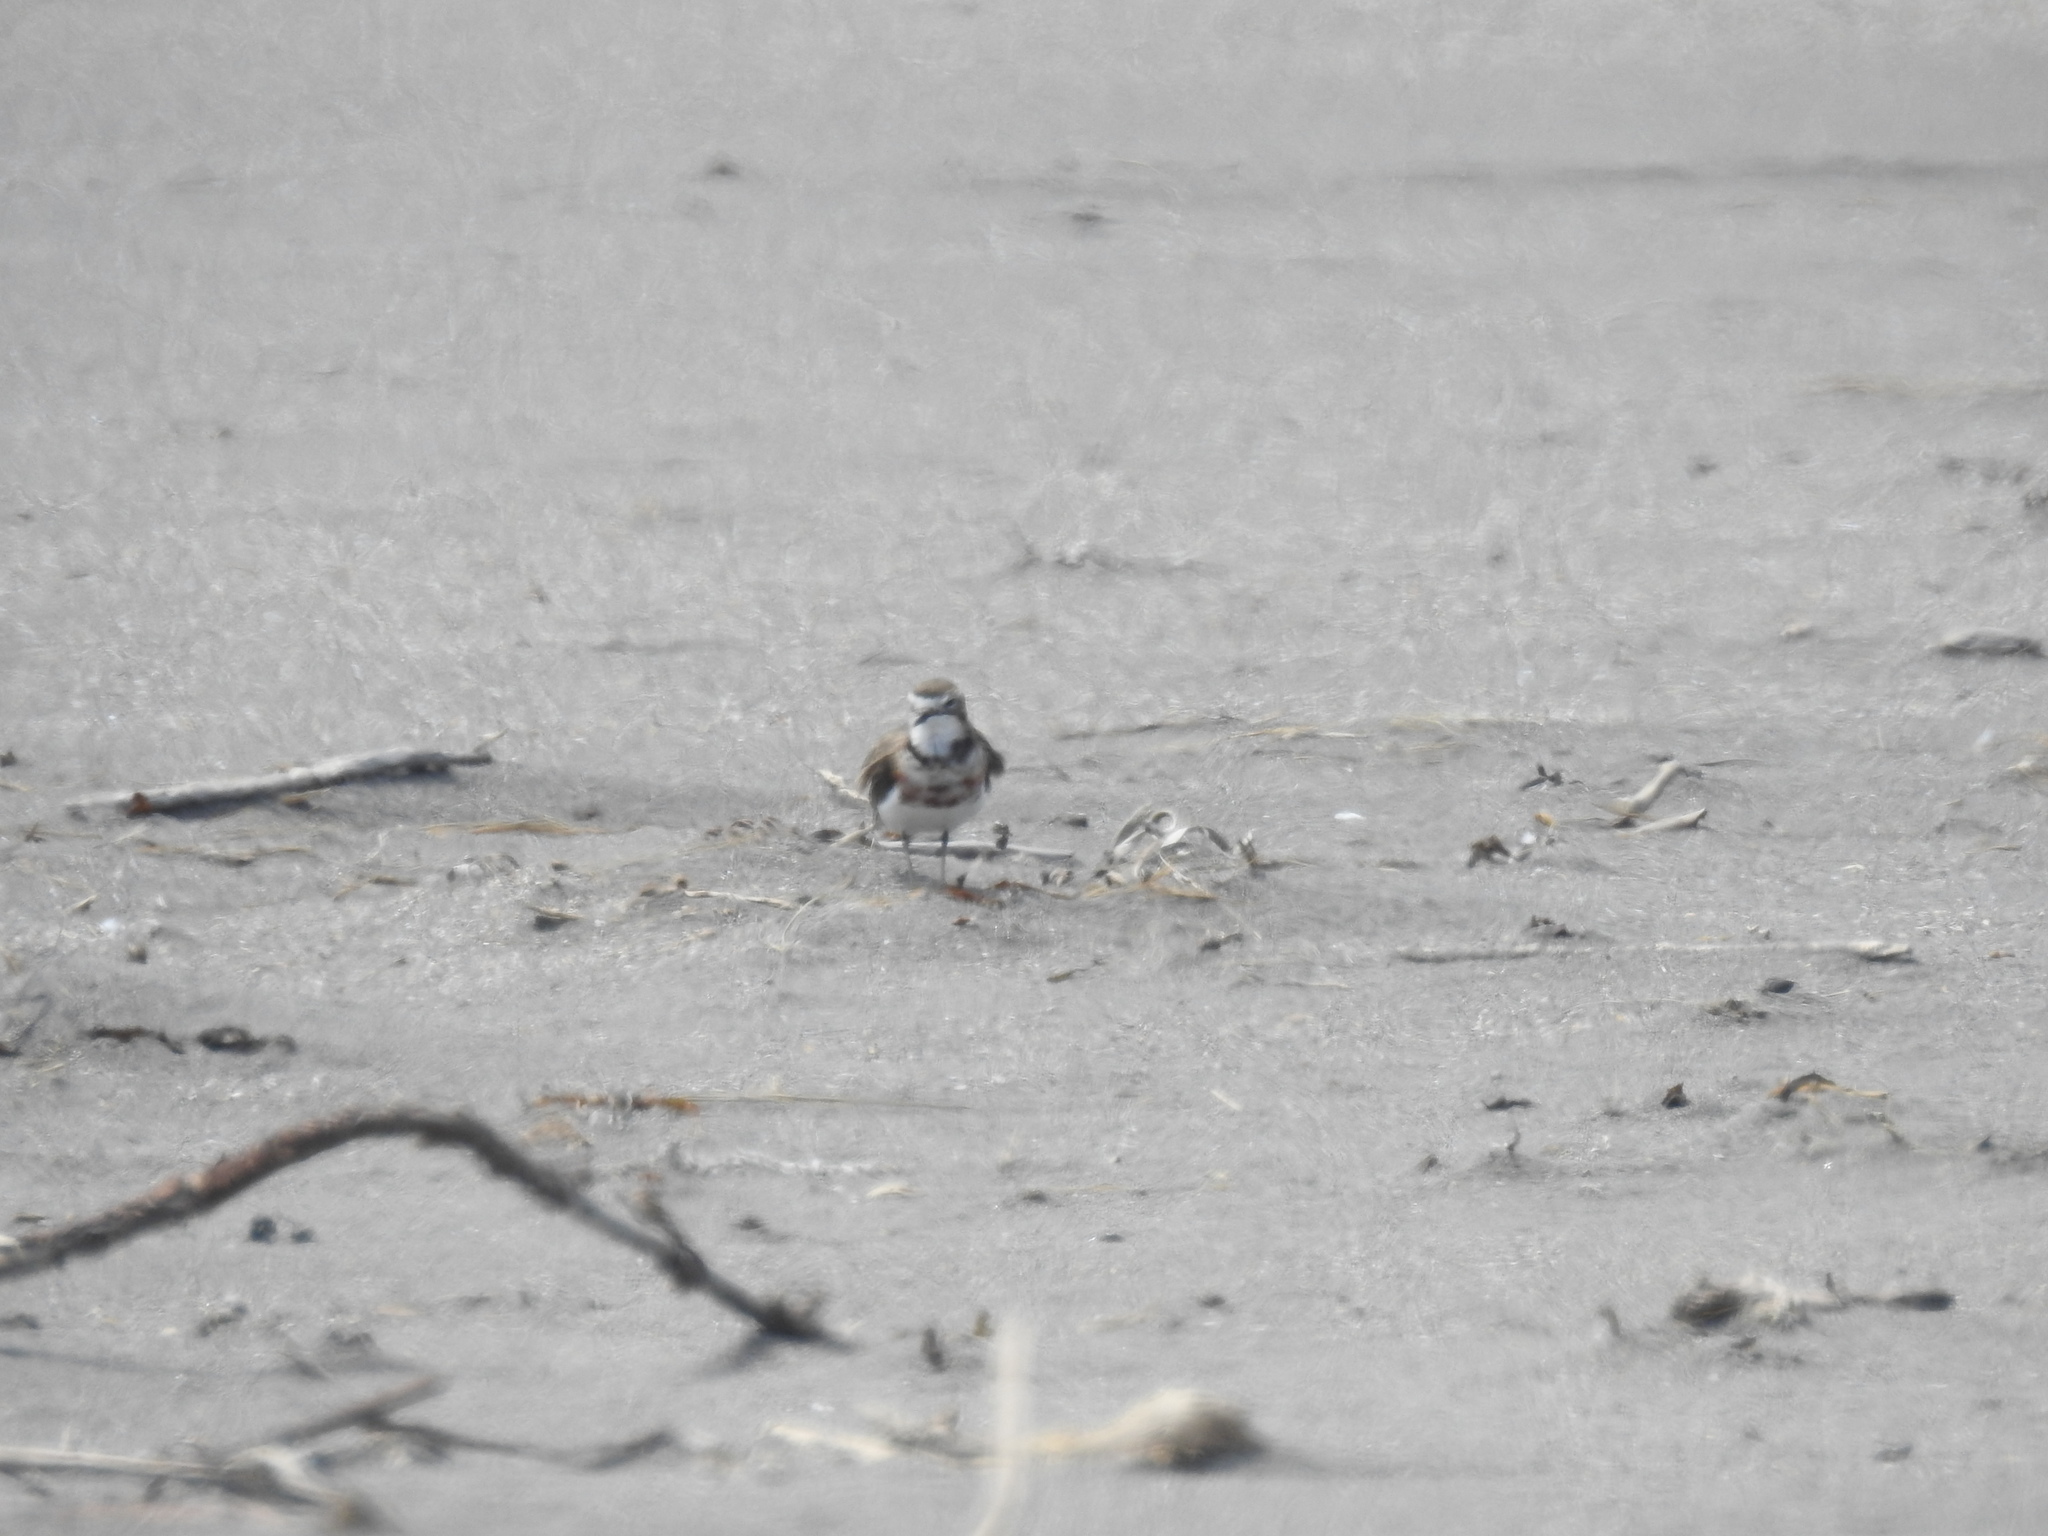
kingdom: Animalia
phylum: Chordata
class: Aves
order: Charadriiformes
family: Charadriidae
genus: Anarhynchus
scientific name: Anarhynchus
